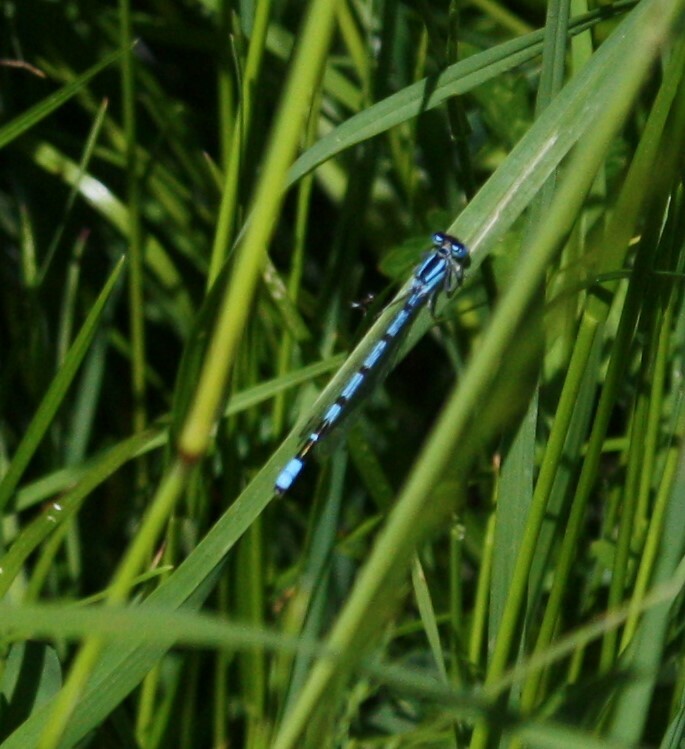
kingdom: Animalia
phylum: Arthropoda
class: Insecta
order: Odonata
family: Coenagrionidae
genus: Enallagma
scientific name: Enallagma cyathigerum
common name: Common blue damselfly
